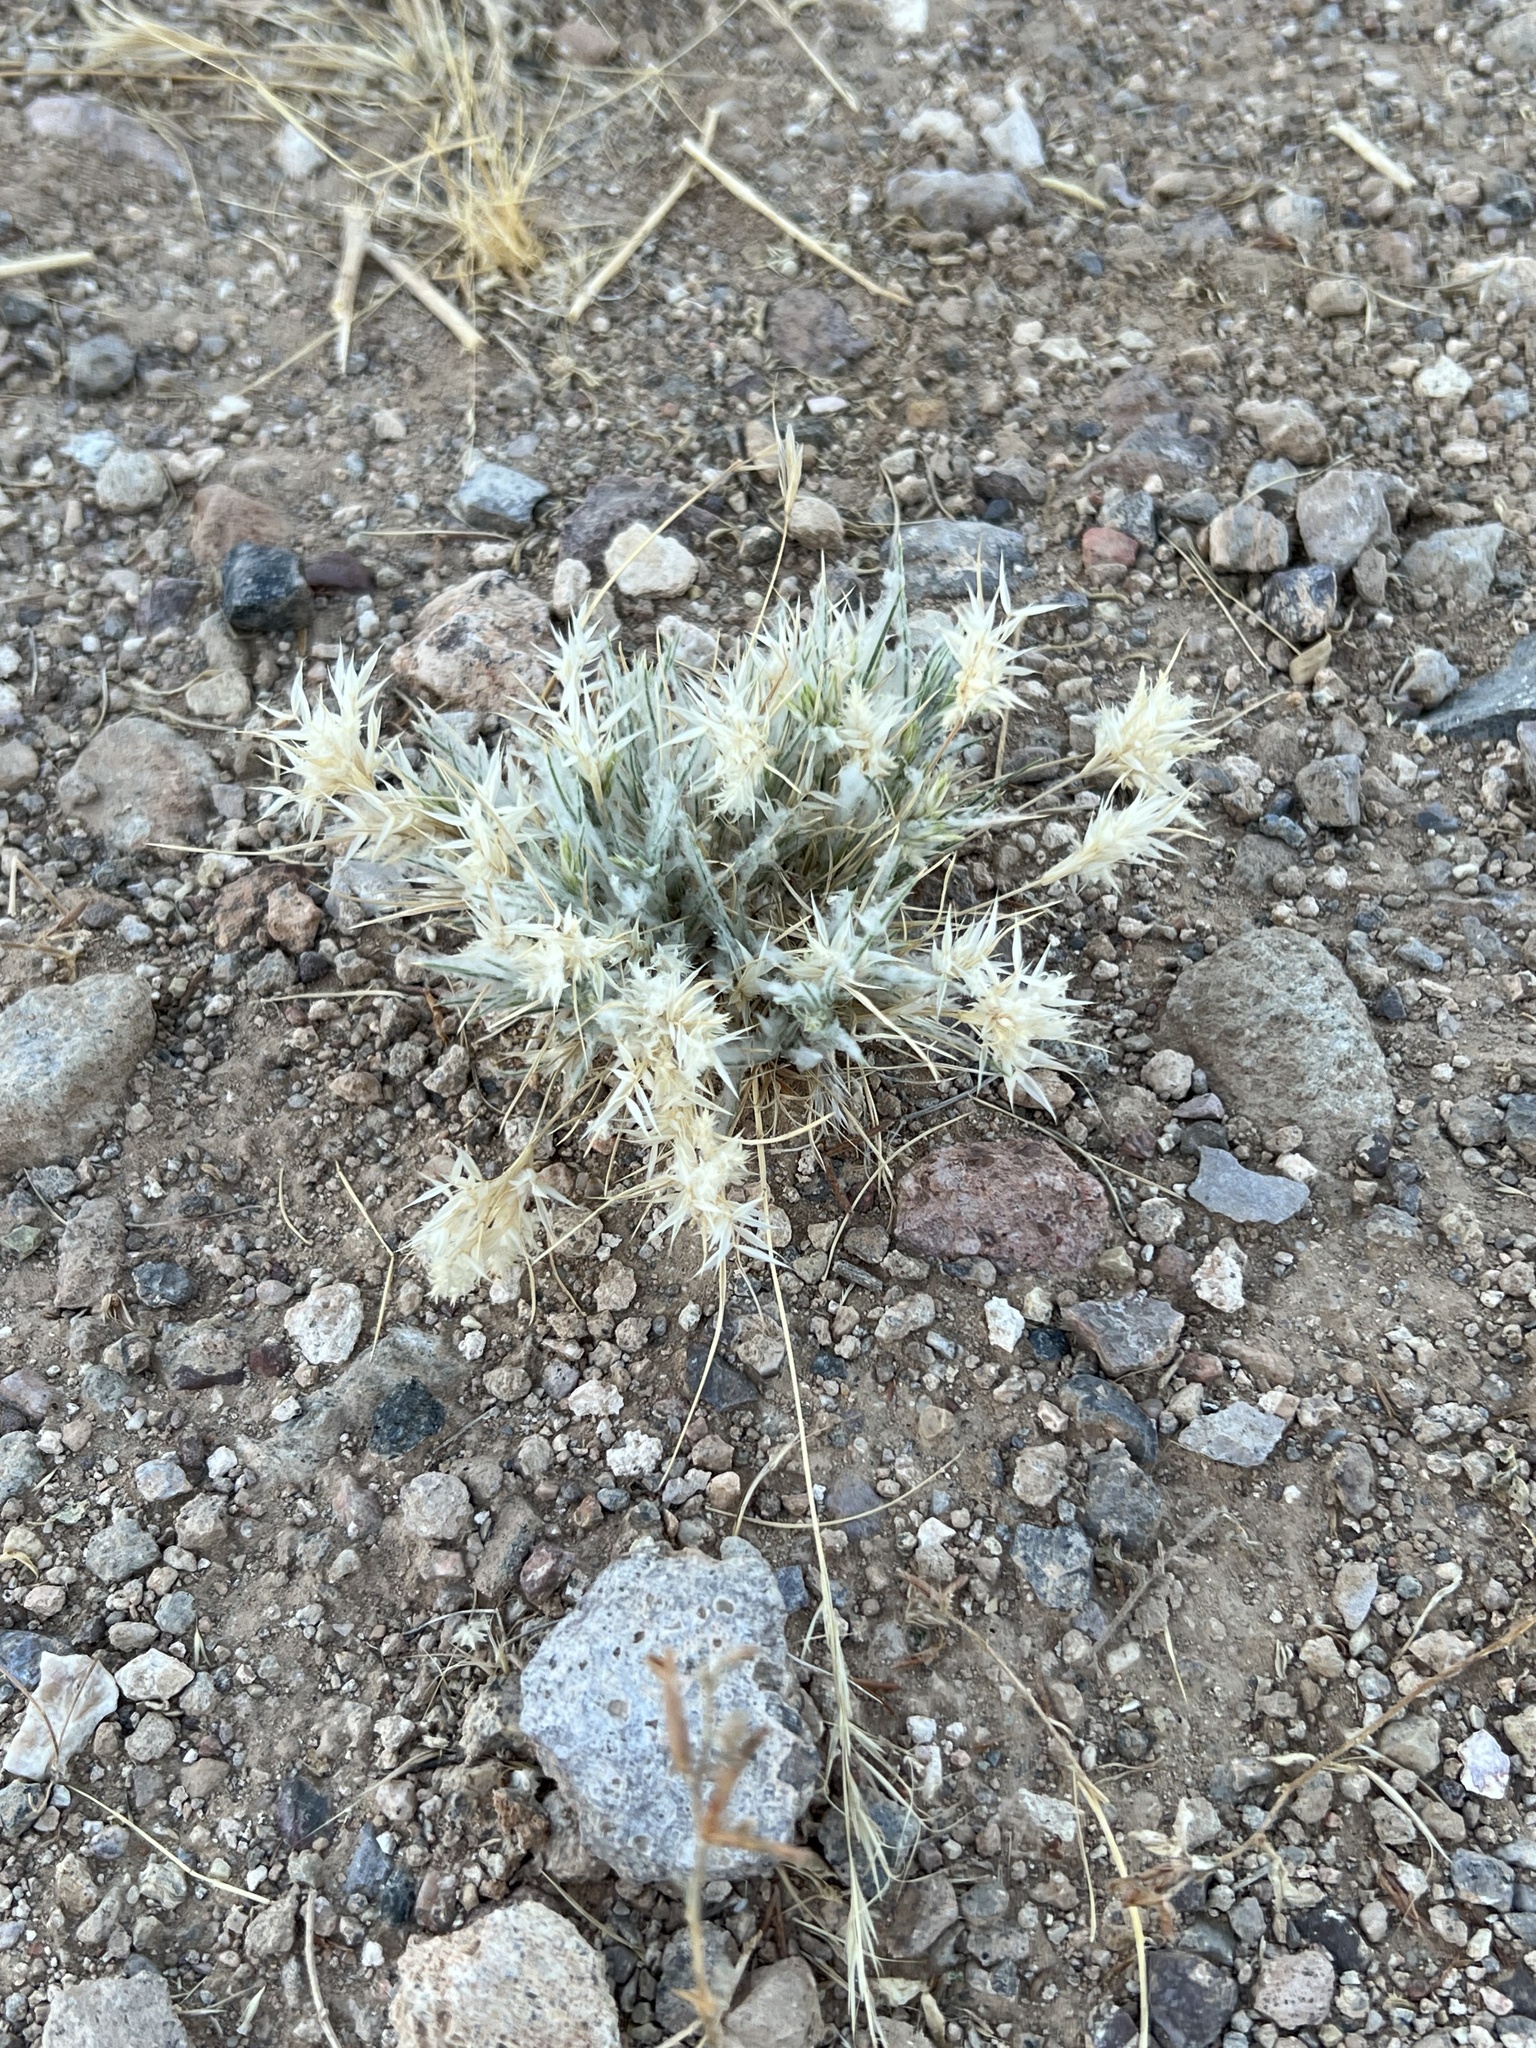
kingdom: Plantae
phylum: Tracheophyta
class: Liliopsida
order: Poales
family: Poaceae
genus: Dasyochloa
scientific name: Dasyochloa pulchella
